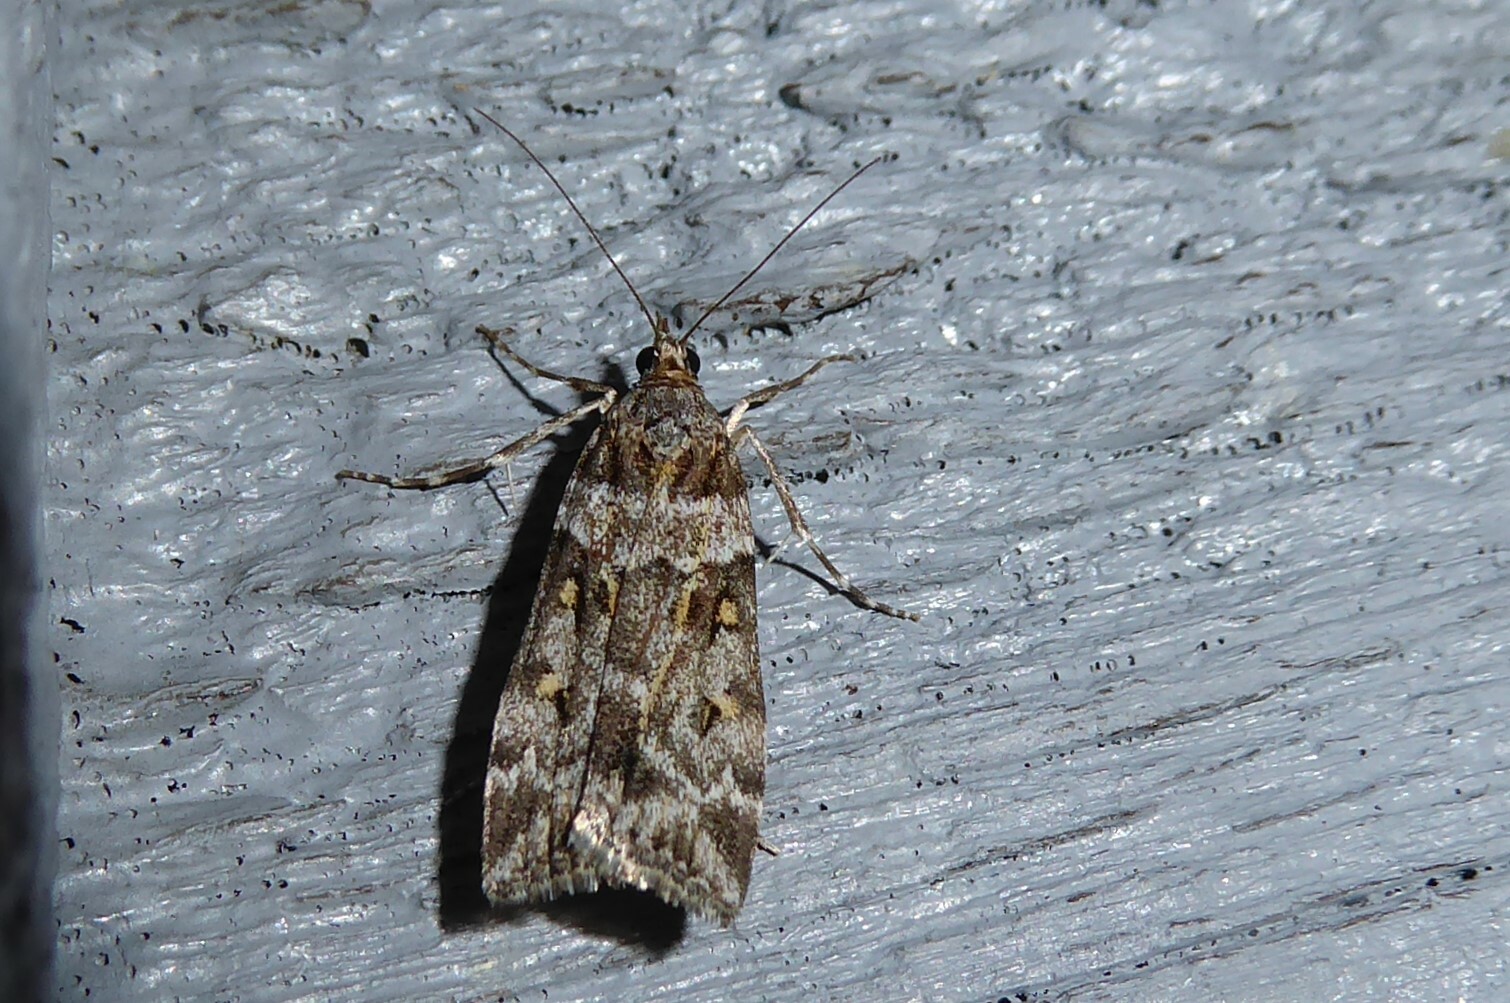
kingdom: Animalia
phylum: Arthropoda
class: Insecta
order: Lepidoptera
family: Crambidae
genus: Scoparia
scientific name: Scoparia tetracycla
